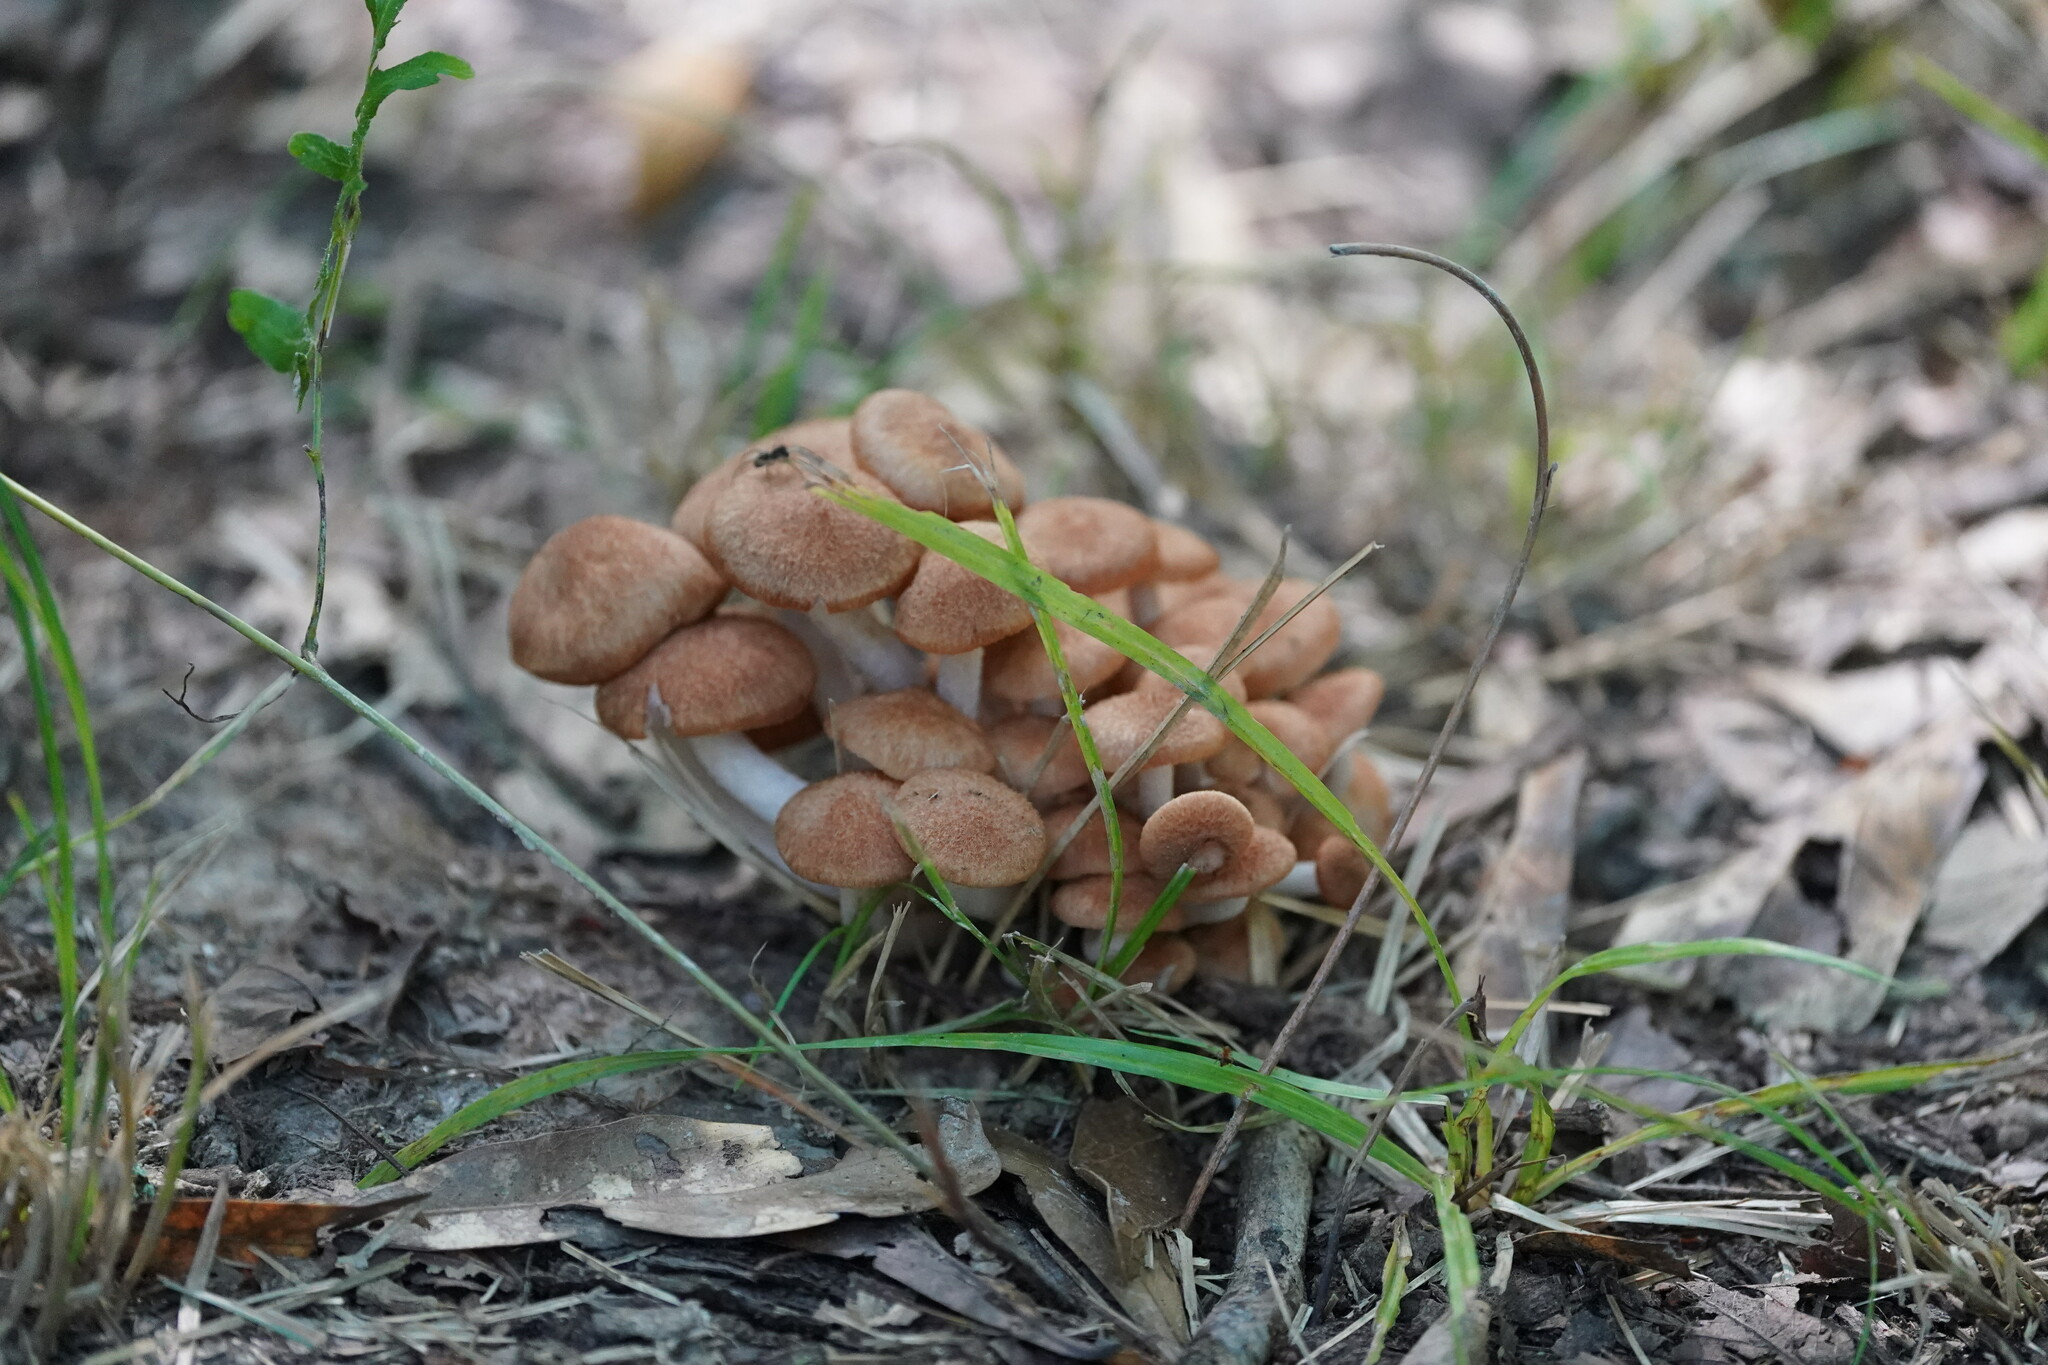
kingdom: Fungi
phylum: Basidiomycota
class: Agaricomycetes
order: Agaricales
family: Physalacriaceae
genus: Desarmillaria
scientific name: Desarmillaria caespitosa
